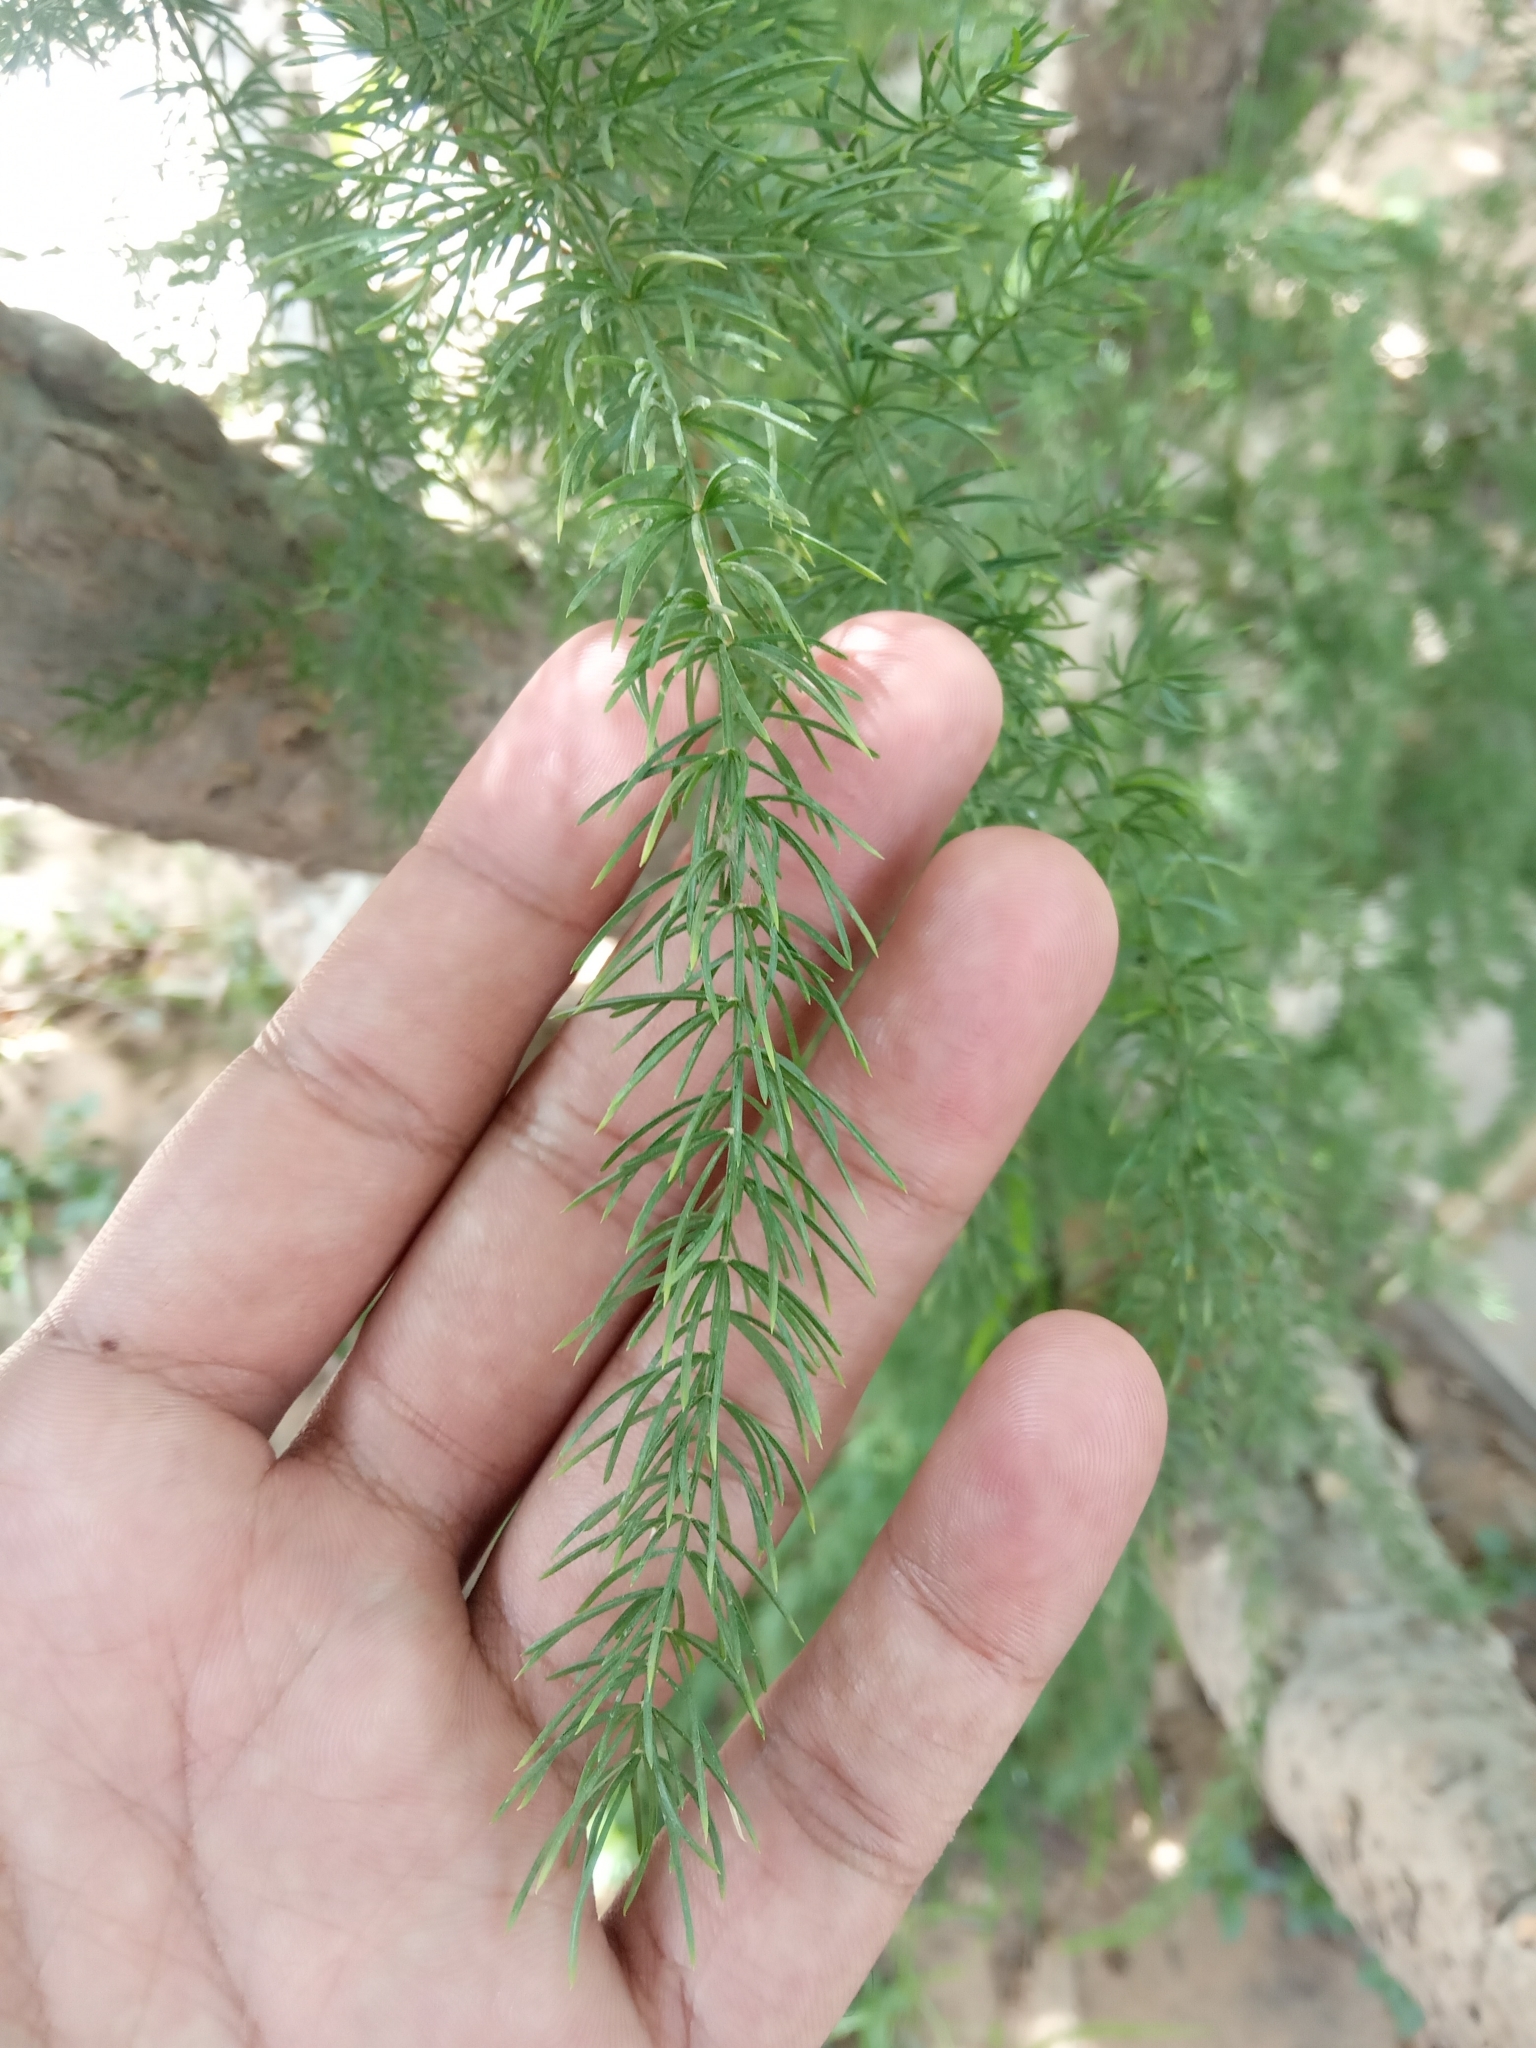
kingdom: Plantae
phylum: Tracheophyta
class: Liliopsida
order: Asparagales
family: Asparagaceae
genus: Asparagus
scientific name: Asparagus setaceus
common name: Common asparagus fern
